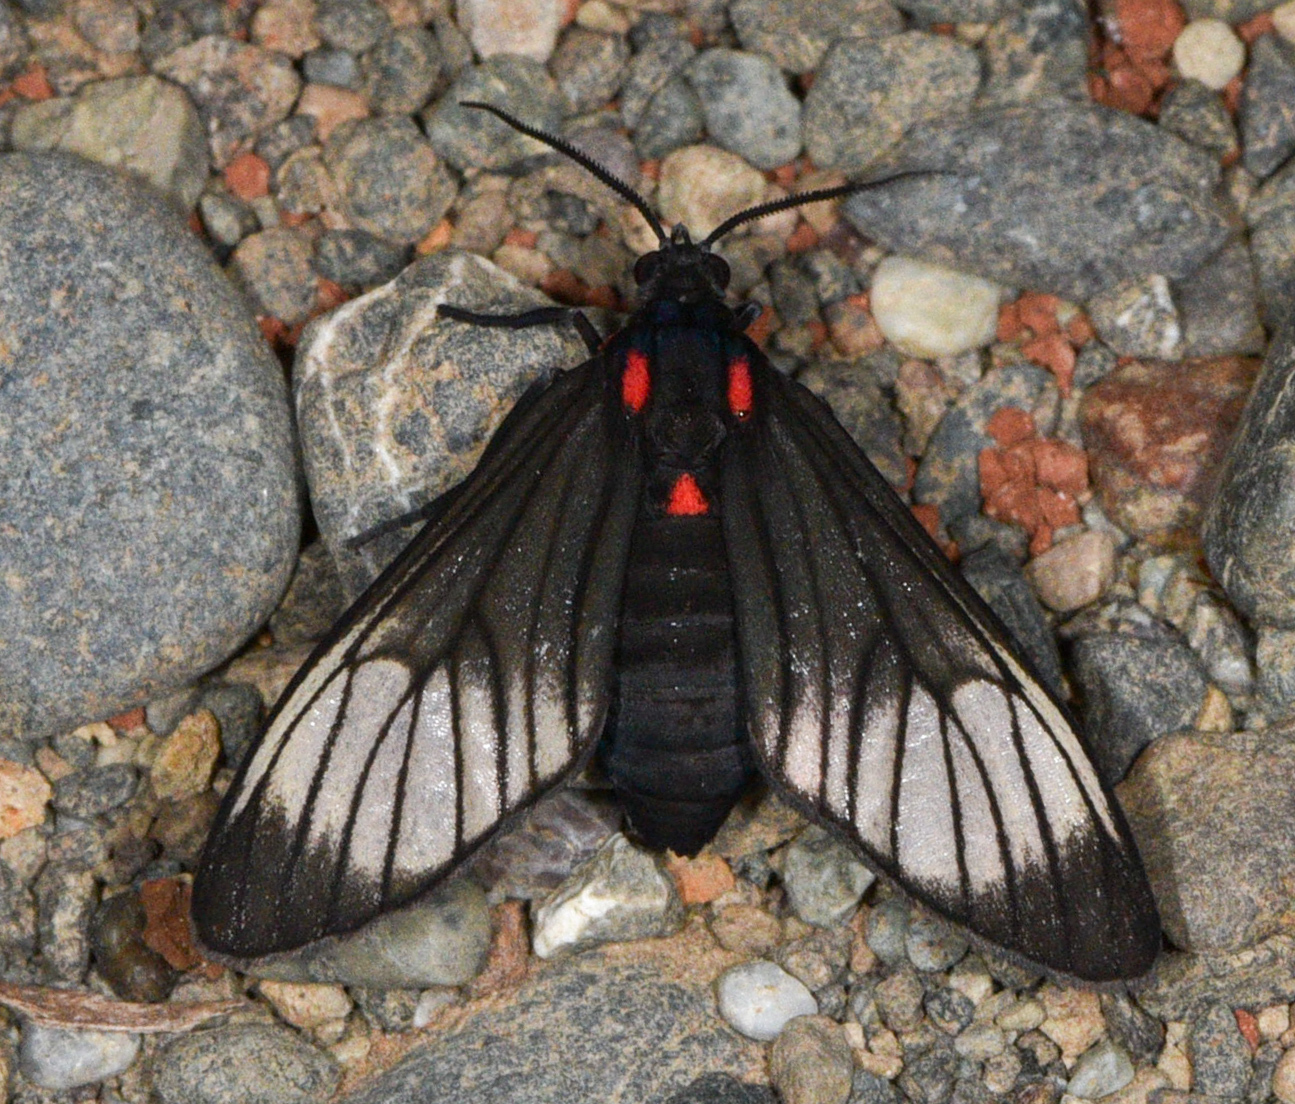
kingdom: Animalia
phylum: Arthropoda
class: Insecta
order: Lepidoptera
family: Erebidae
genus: Hyperphara
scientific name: Hyperphara clusia
